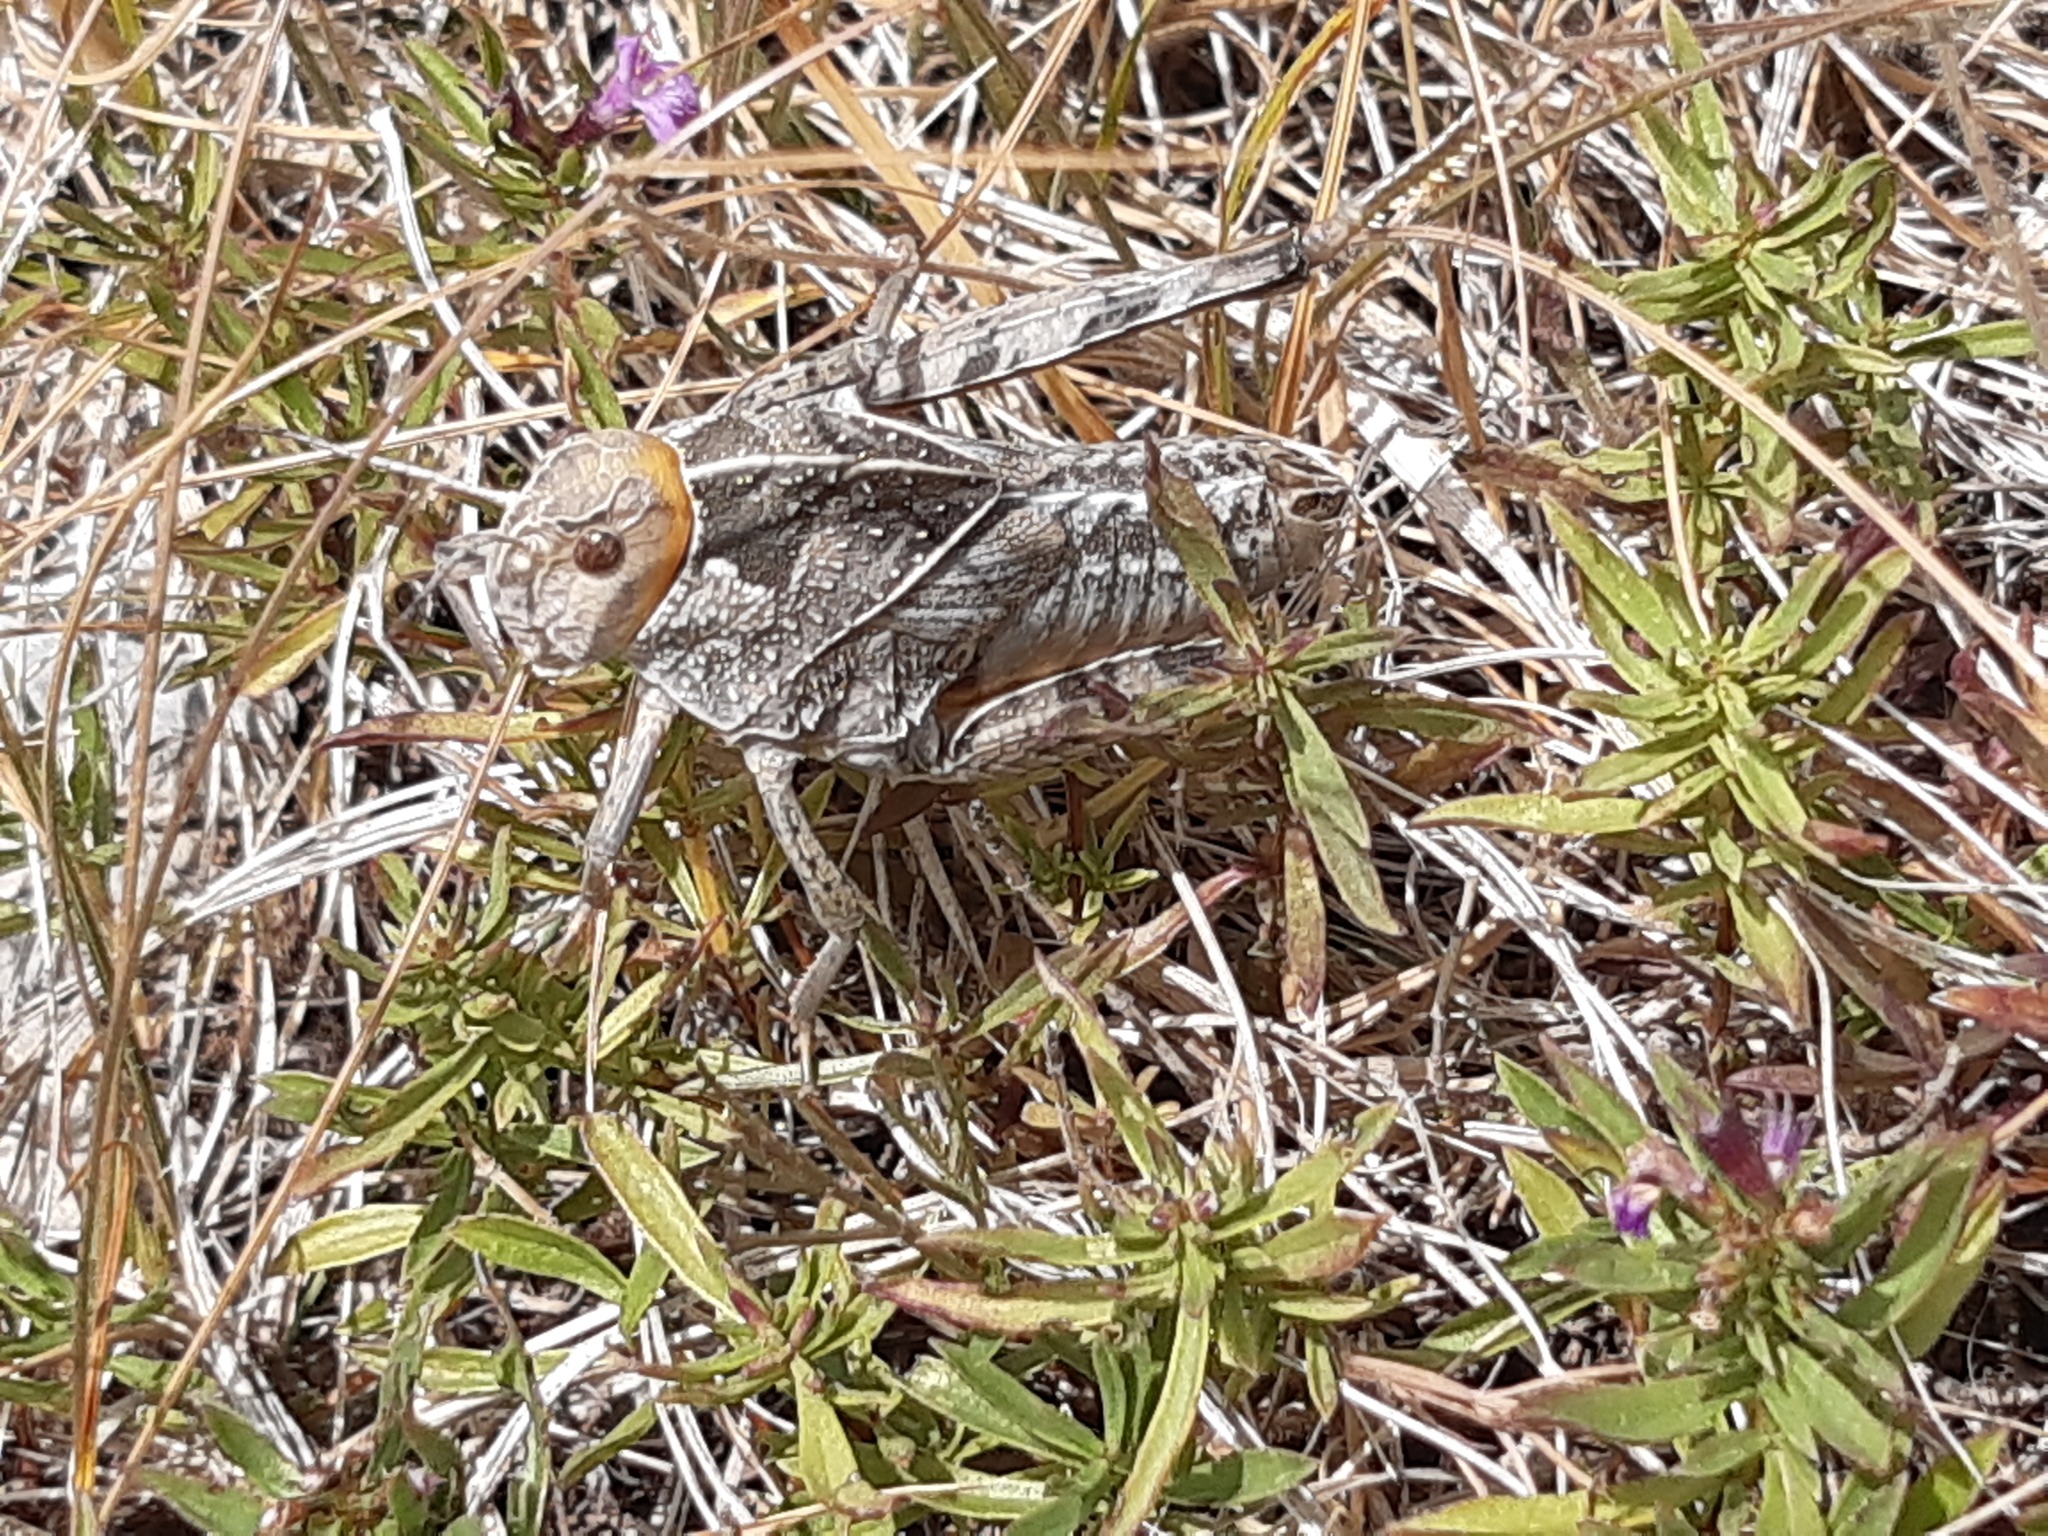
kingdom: Animalia
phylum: Arthropoda
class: Insecta
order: Orthoptera
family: Pamphagidae
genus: Prionotropis
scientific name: Prionotropis hystrix
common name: Eastern stone grasshopper
